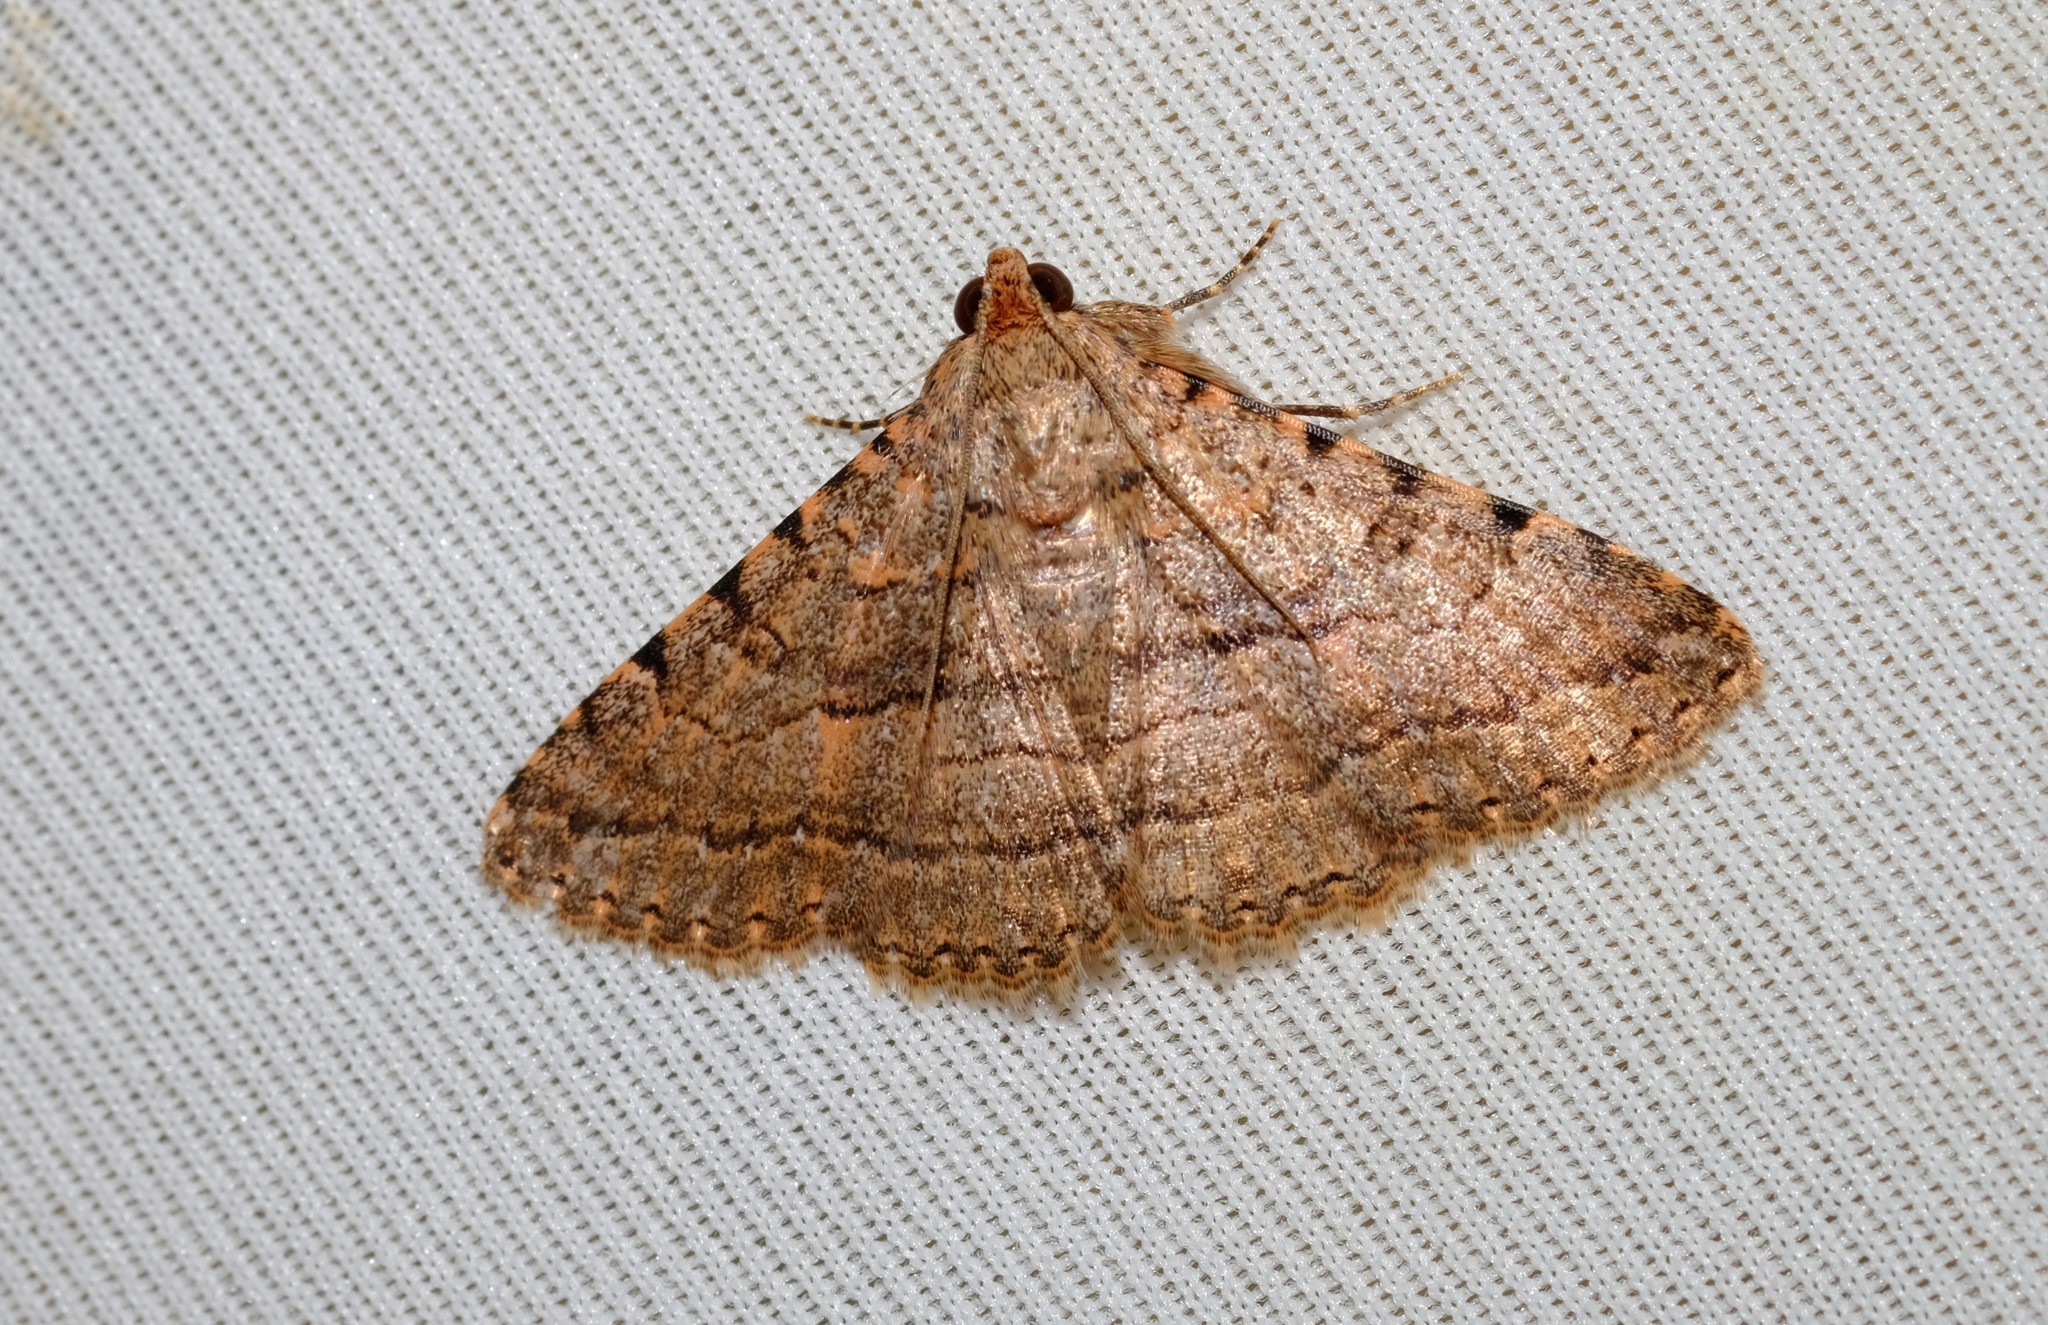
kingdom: Animalia
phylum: Arthropoda
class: Insecta
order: Lepidoptera
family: Erebidae
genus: Diatenes
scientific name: Diatenes aglossoides
